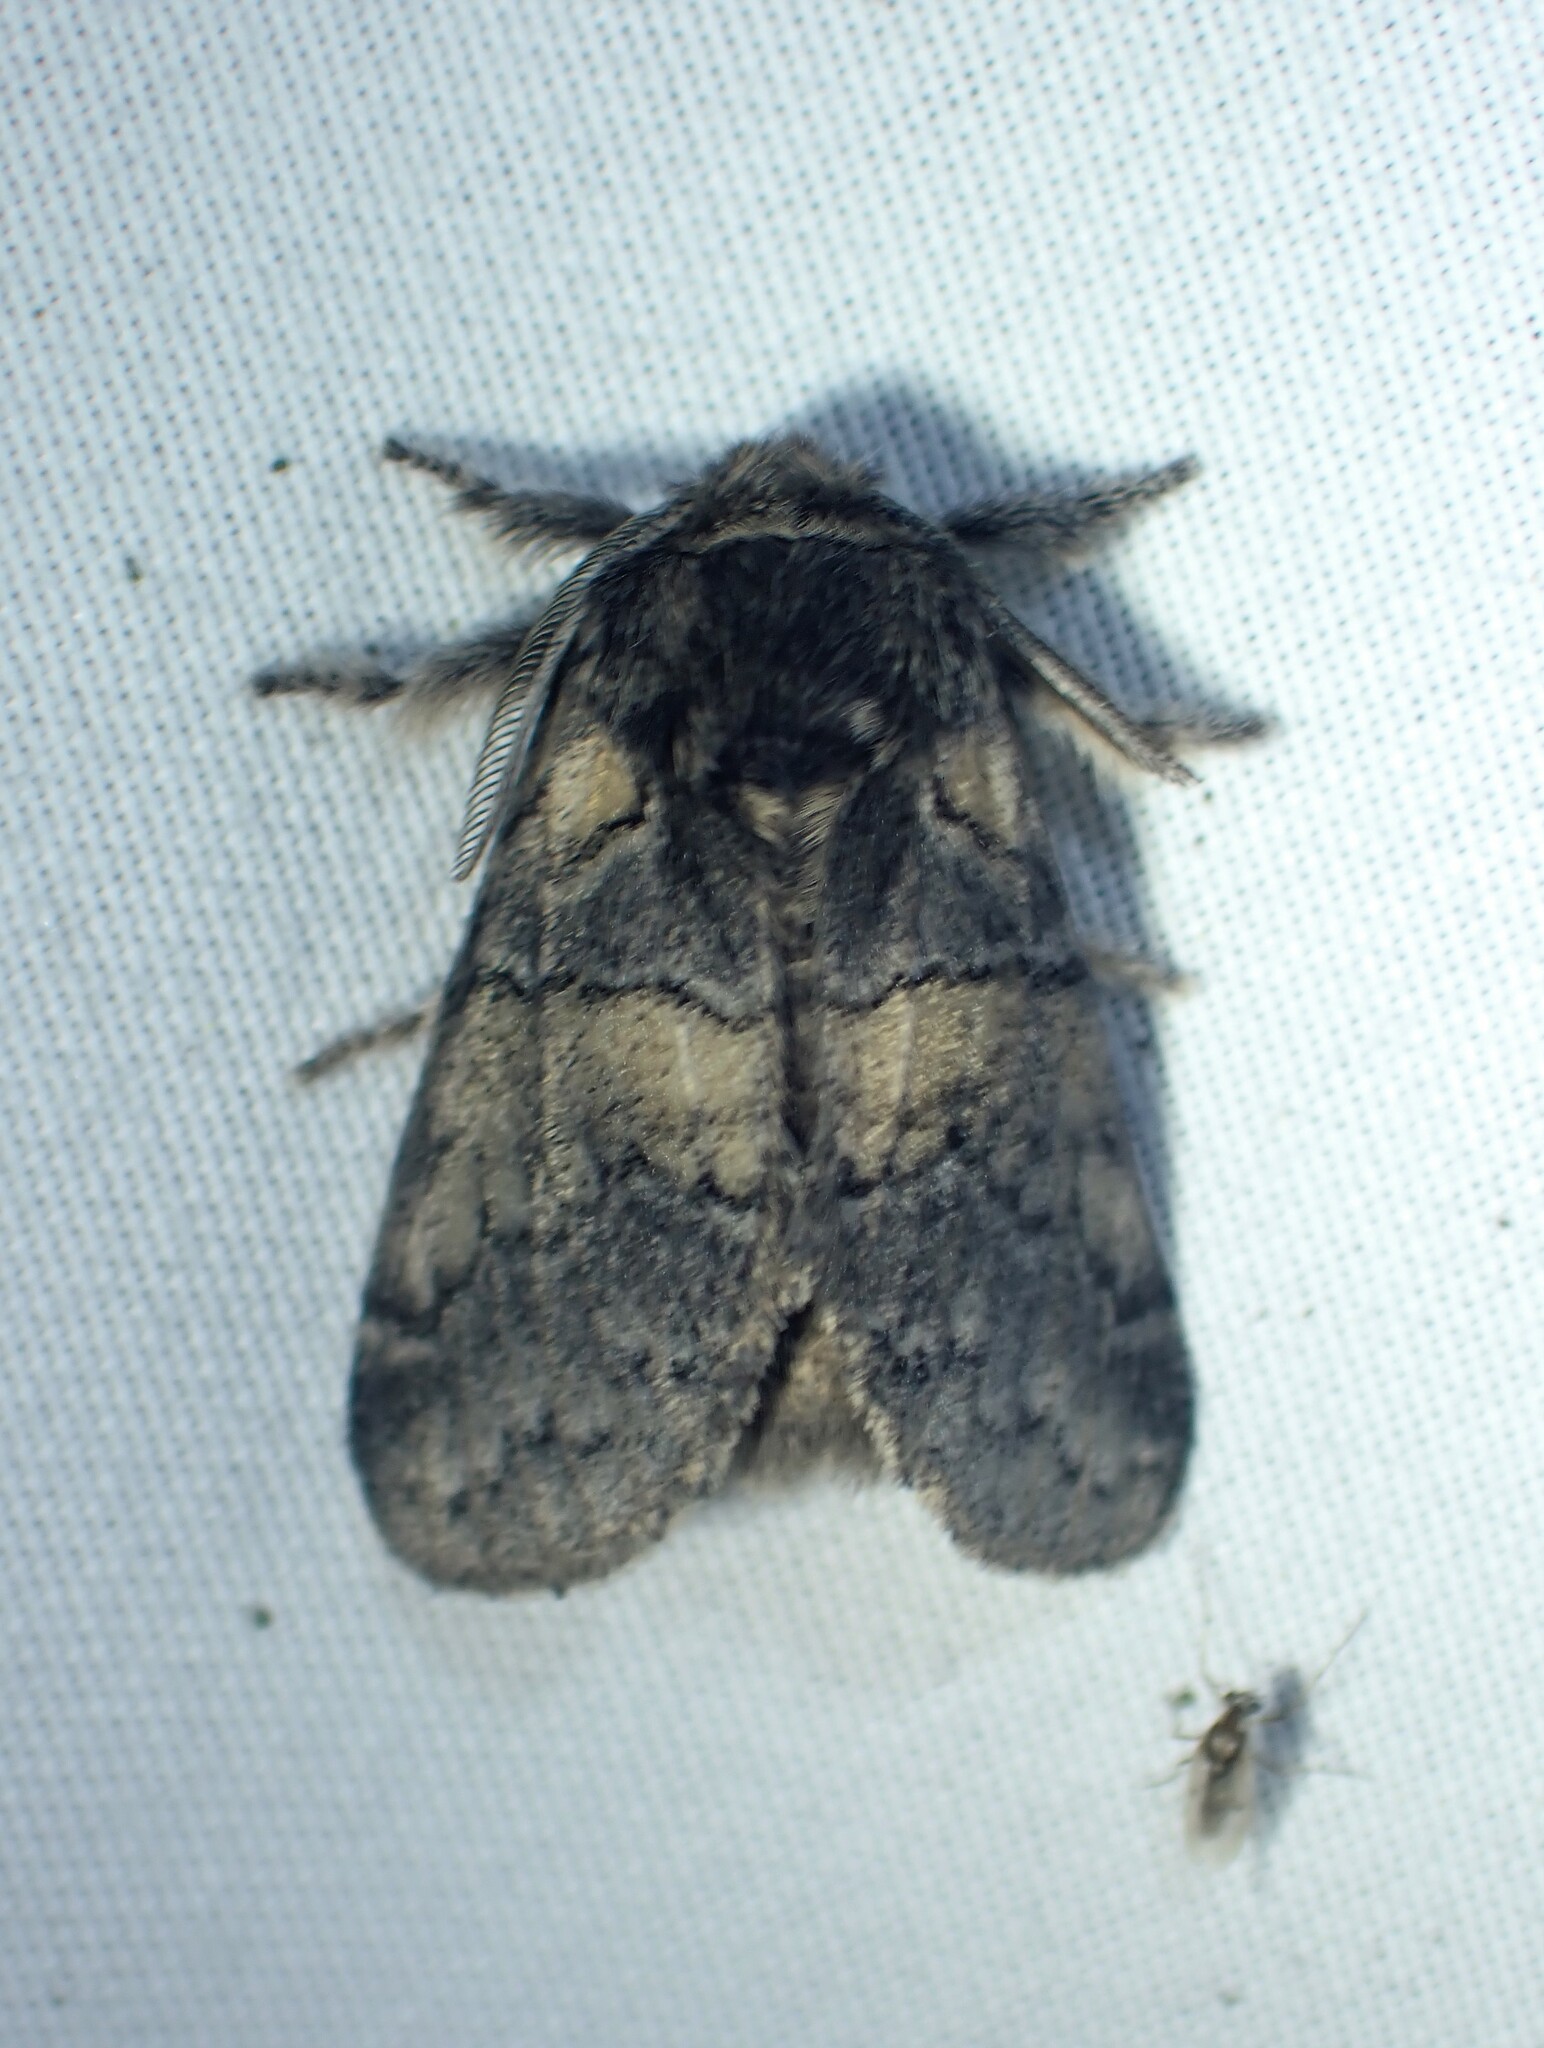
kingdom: Animalia
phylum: Arthropoda
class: Insecta
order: Lepidoptera
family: Notodontidae
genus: Gluphisia
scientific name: Gluphisia septentrionis
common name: Common gluphisia
